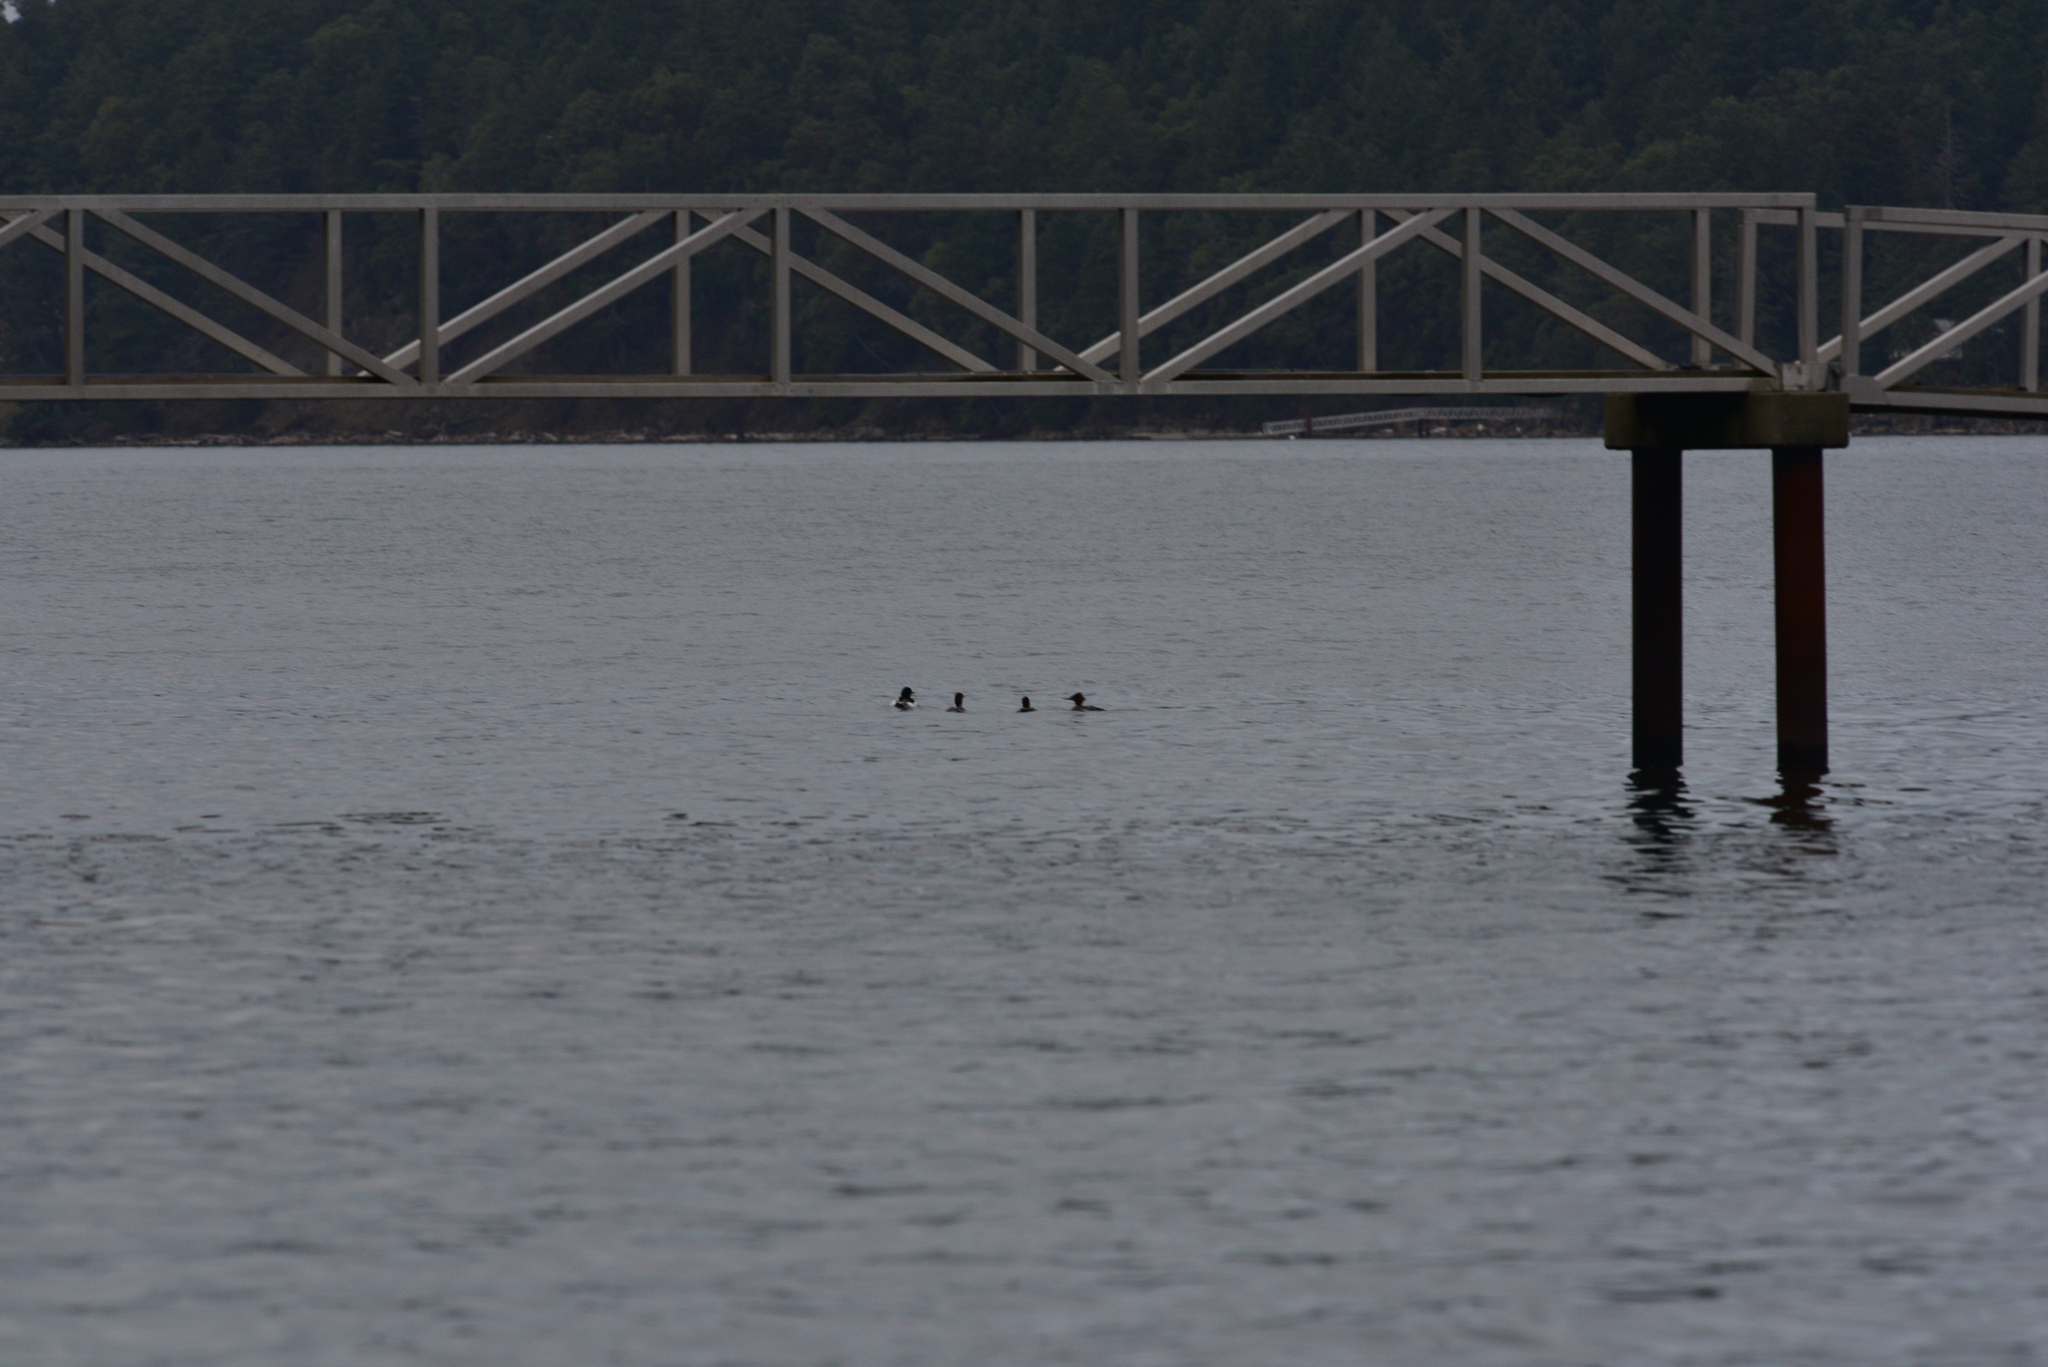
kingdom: Animalia
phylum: Chordata
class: Aves
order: Anseriformes
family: Anatidae
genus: Mergus
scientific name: Mergus merganser
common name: Common merganser
